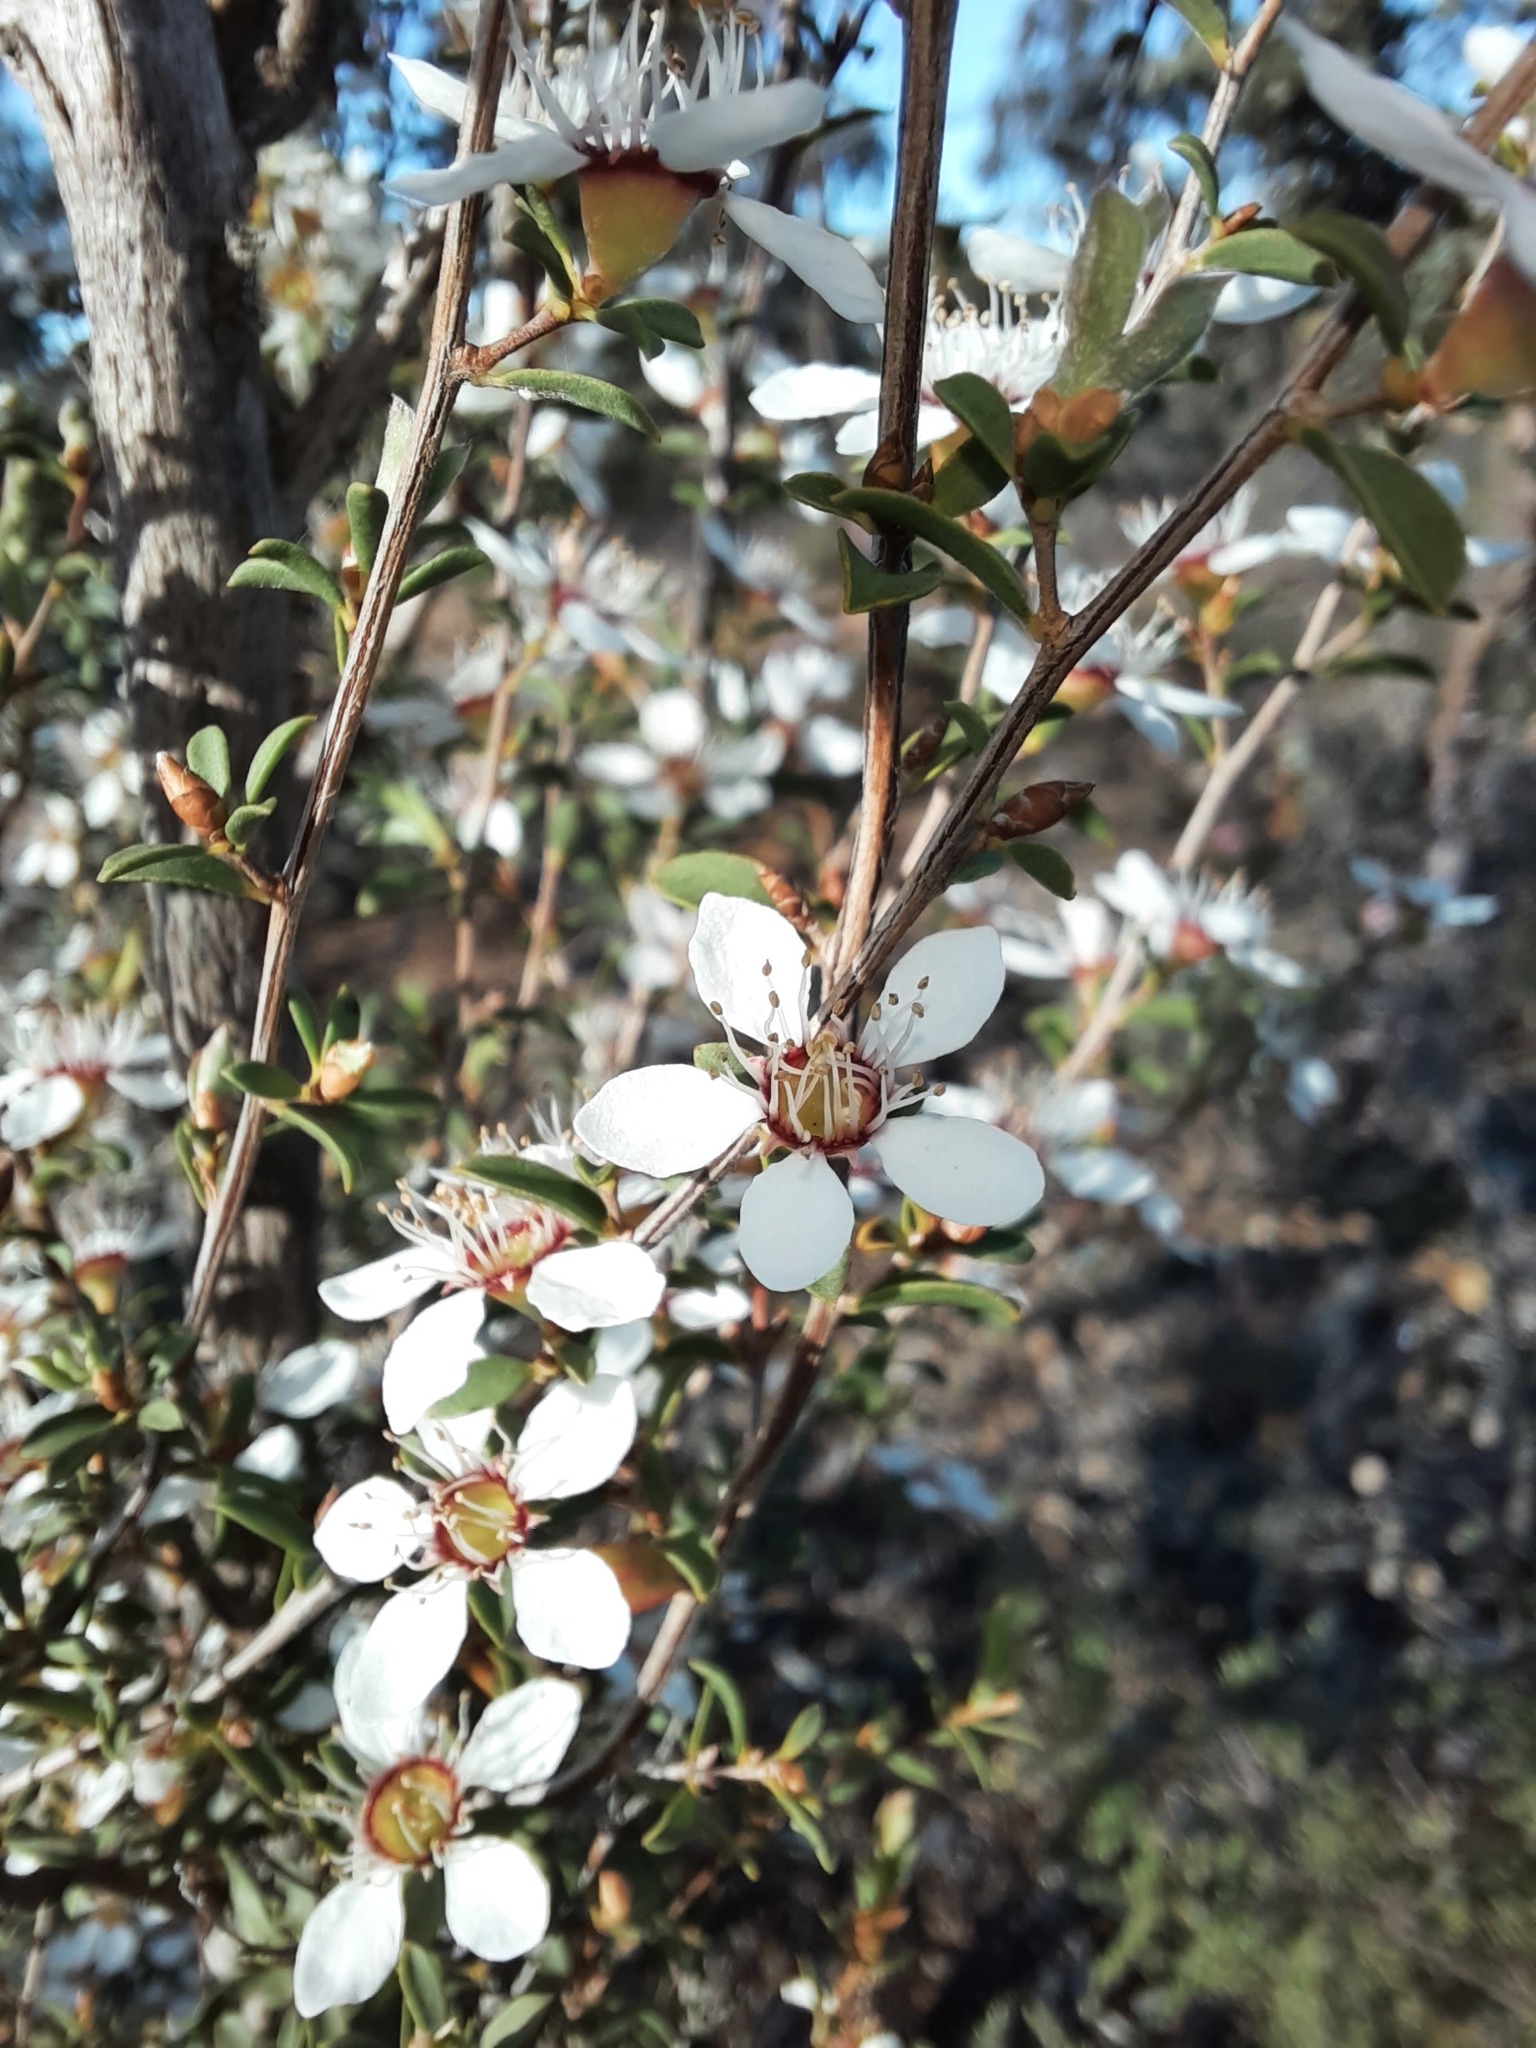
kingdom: Plantae
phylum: Tracheophyta
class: Magnoliopsida
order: Myrtales
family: Myrtaceae
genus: Leptospermum
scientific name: Leptospermum myrsinoides
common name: Heath teatree
